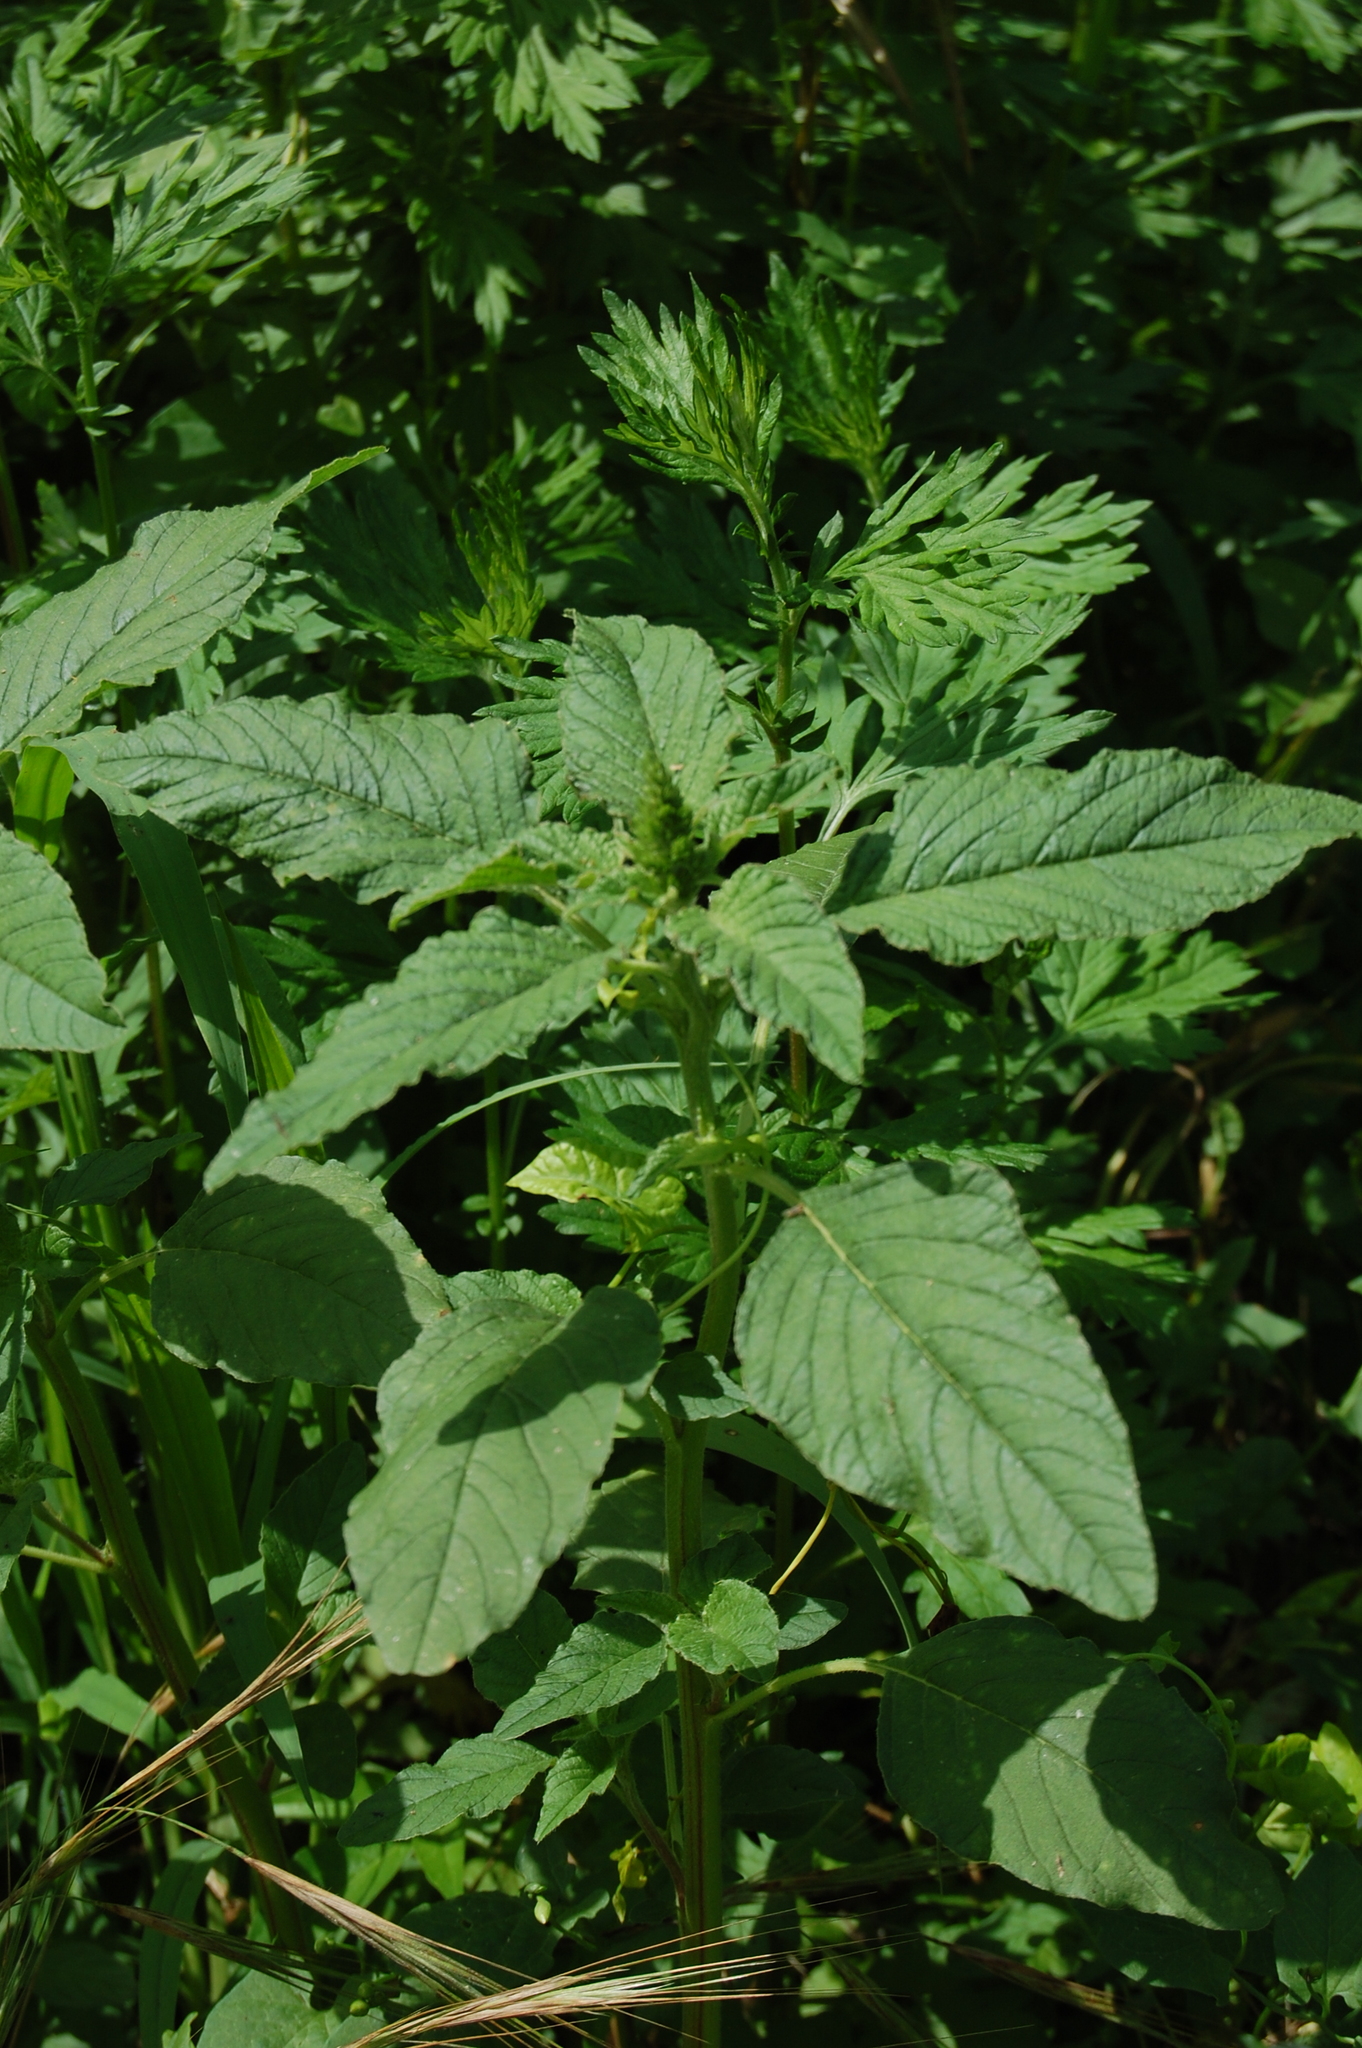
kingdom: Plantae
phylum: Tracheophyta
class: Magnoliopsida
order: Caryophyllales
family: Amaranthaceae
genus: Amaranthus
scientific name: Amaranthus retroflexus
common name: Redroot amaranth
